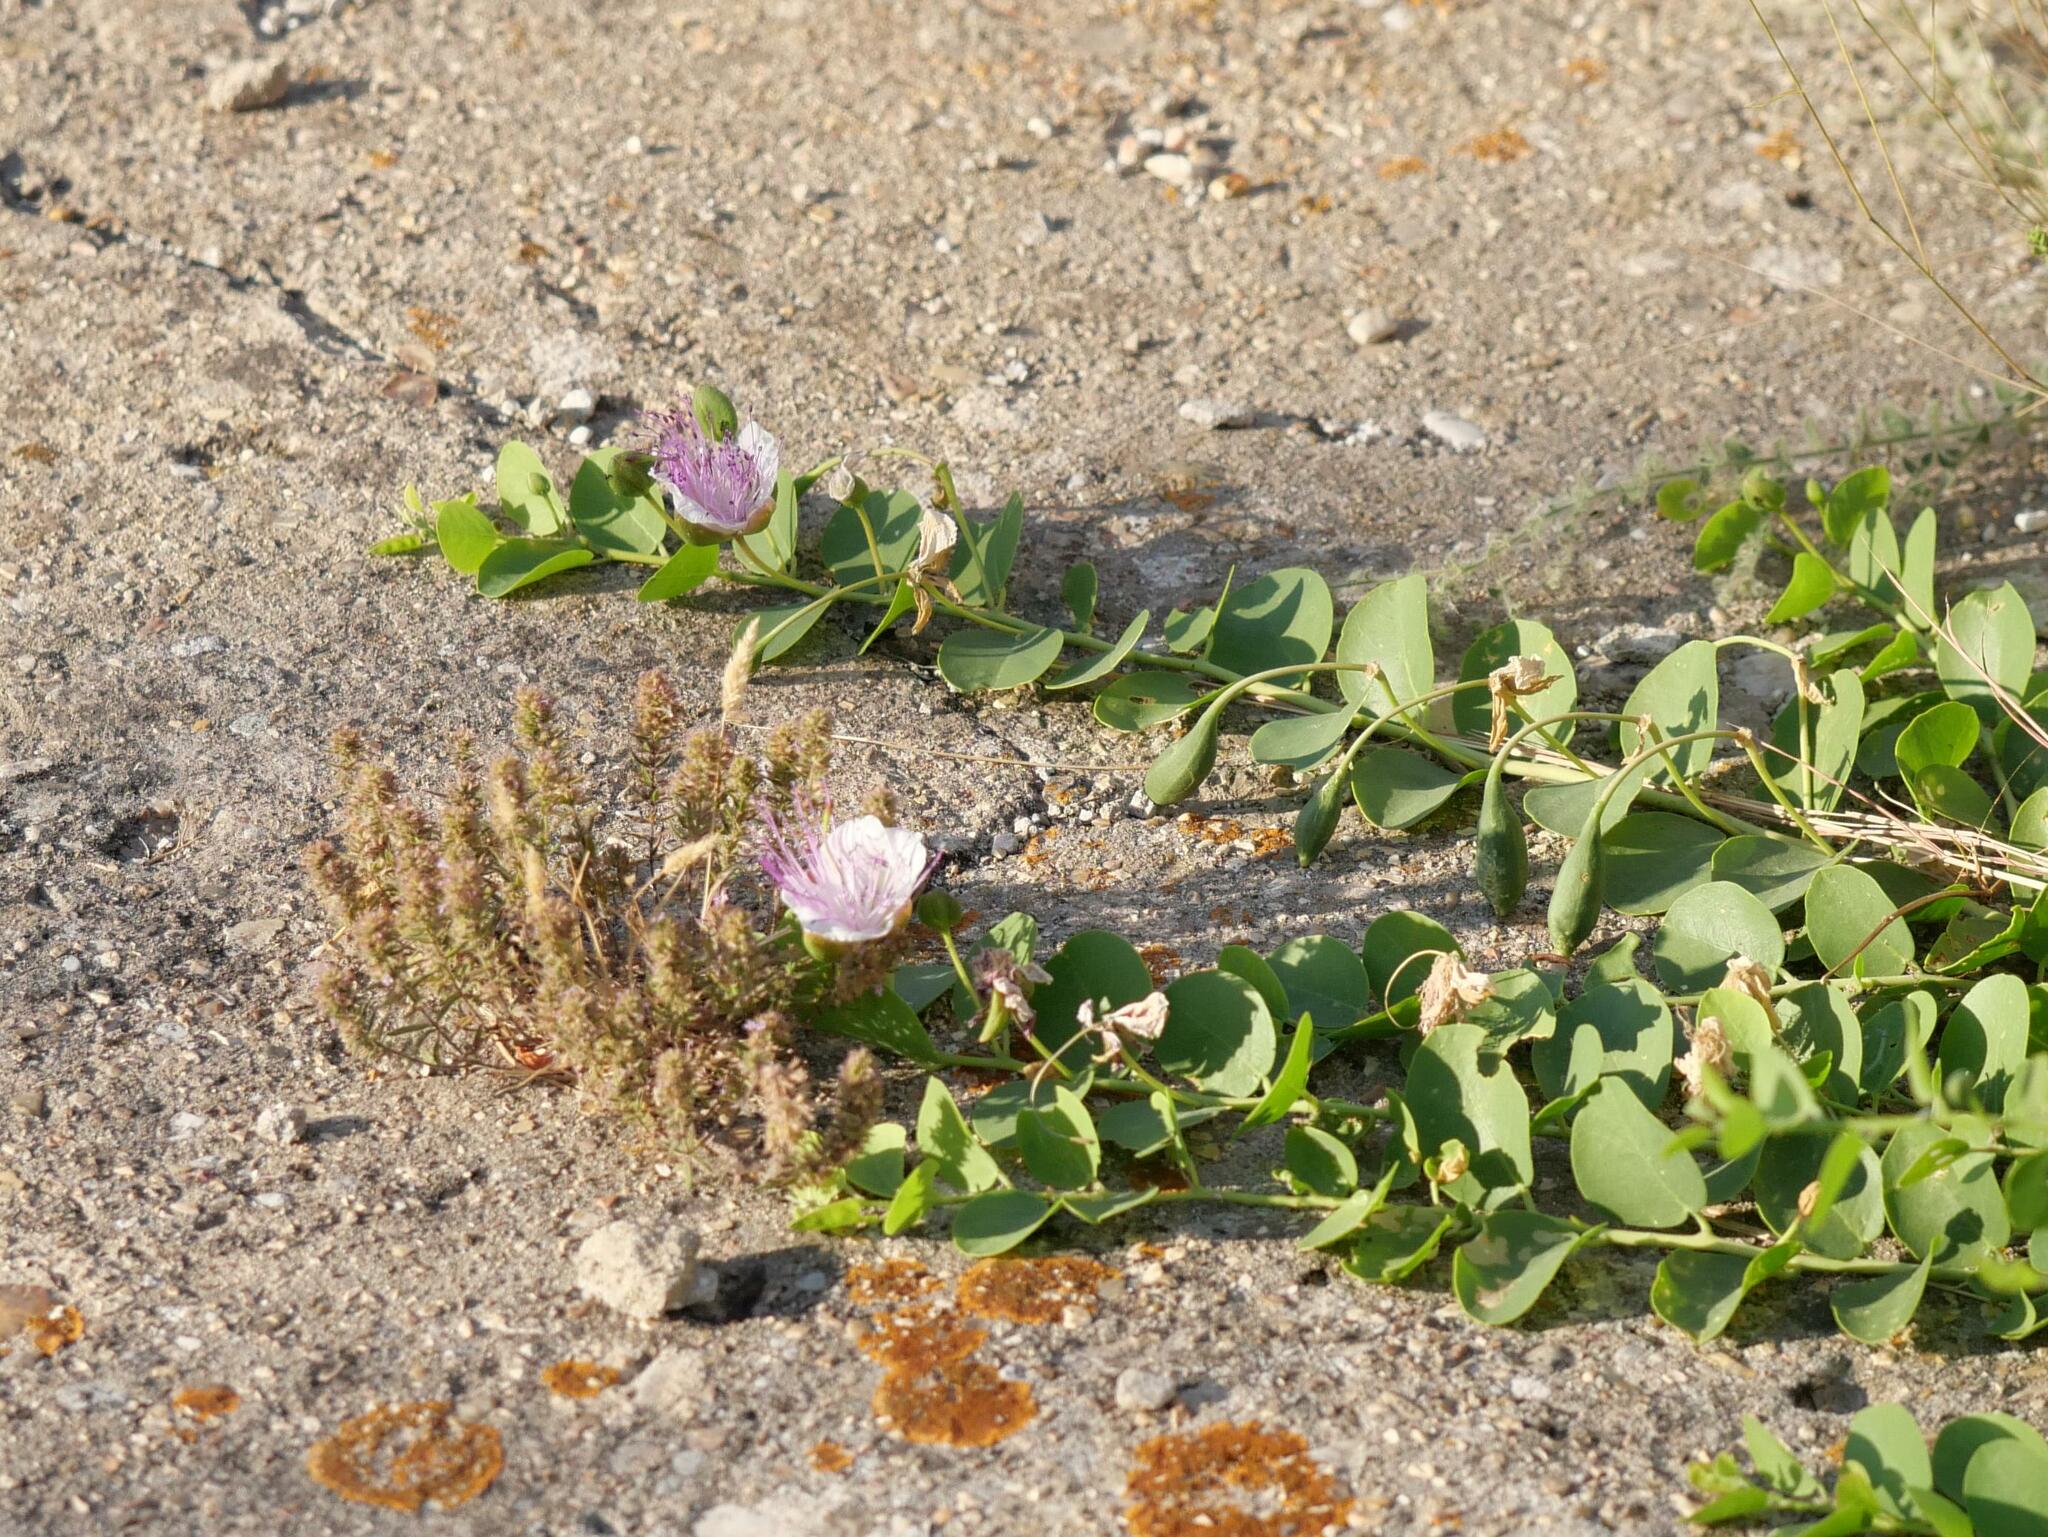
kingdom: Plantae
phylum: Tracheophyta
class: Magnoliopsida
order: Brassicales
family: Capparaceae
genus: Capparis
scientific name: Capparis orientalis
